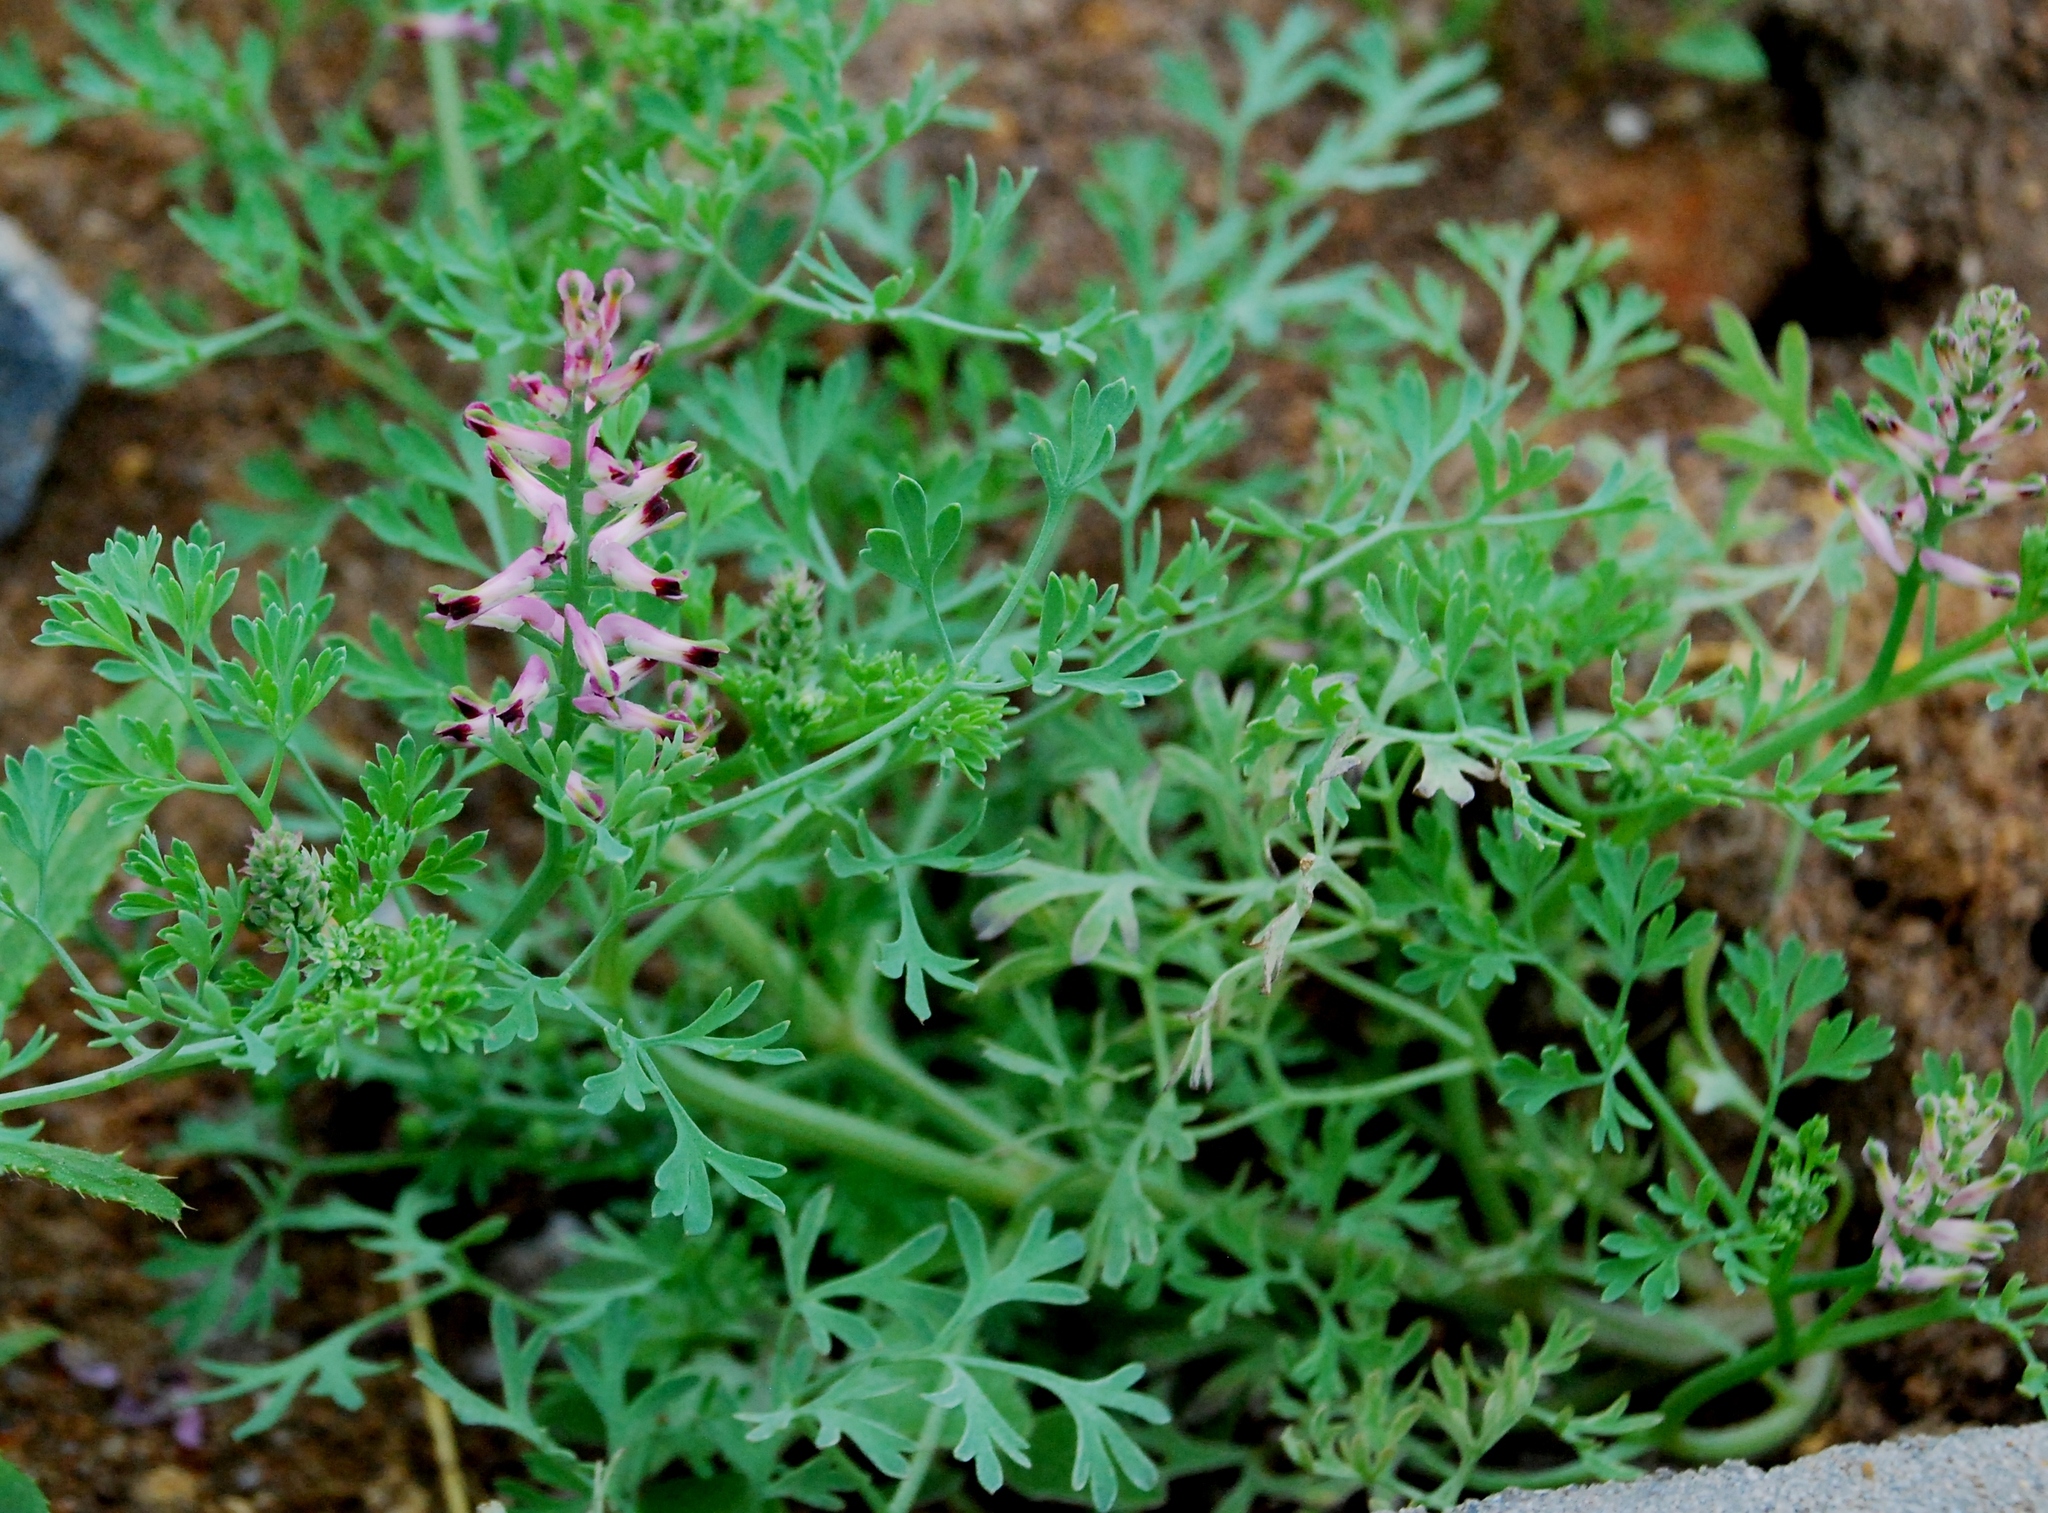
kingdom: Plantae
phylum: Tracheophyta
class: Magnoliopsida
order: Ranunculales
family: Papaveraceae
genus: Fumaria
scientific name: Fumaria officinalis
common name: Common fumitory
